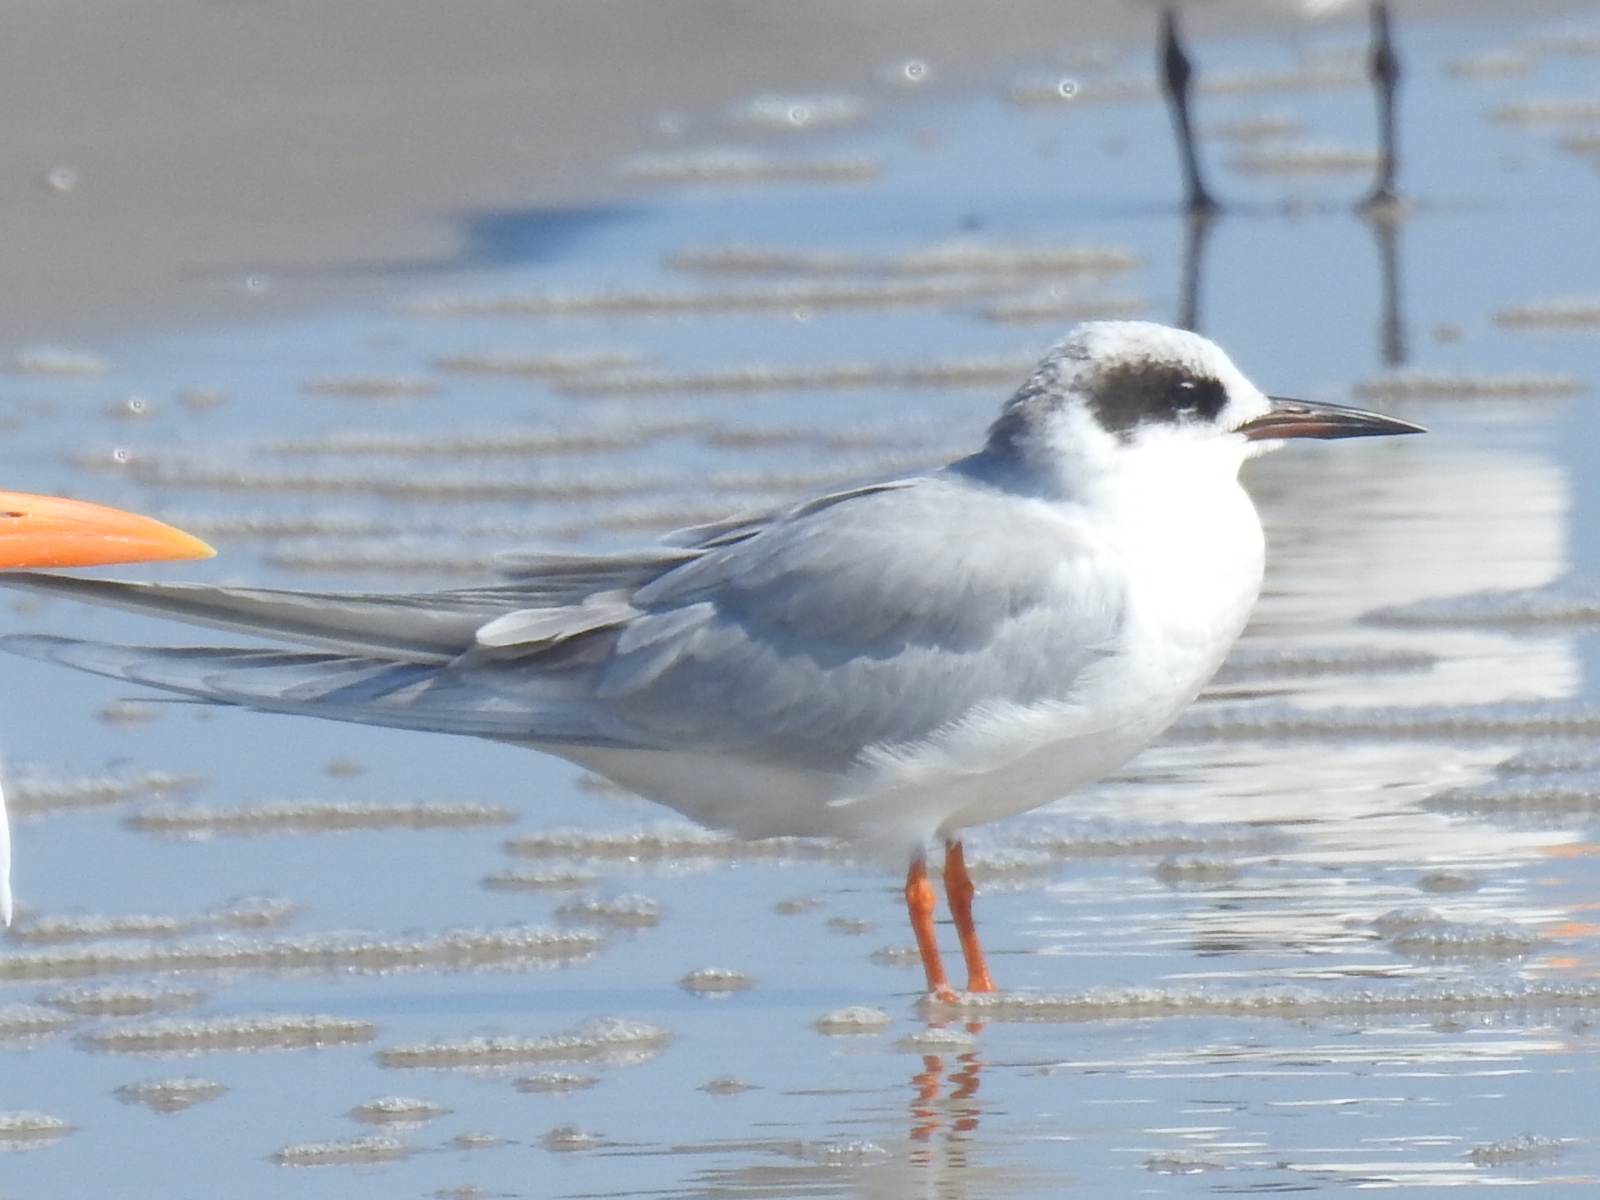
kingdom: Animalia
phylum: Chordata
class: Aves
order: Charadriiformes
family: Laridae
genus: Sterna
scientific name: Sterna forsteri
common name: Forster's tern
